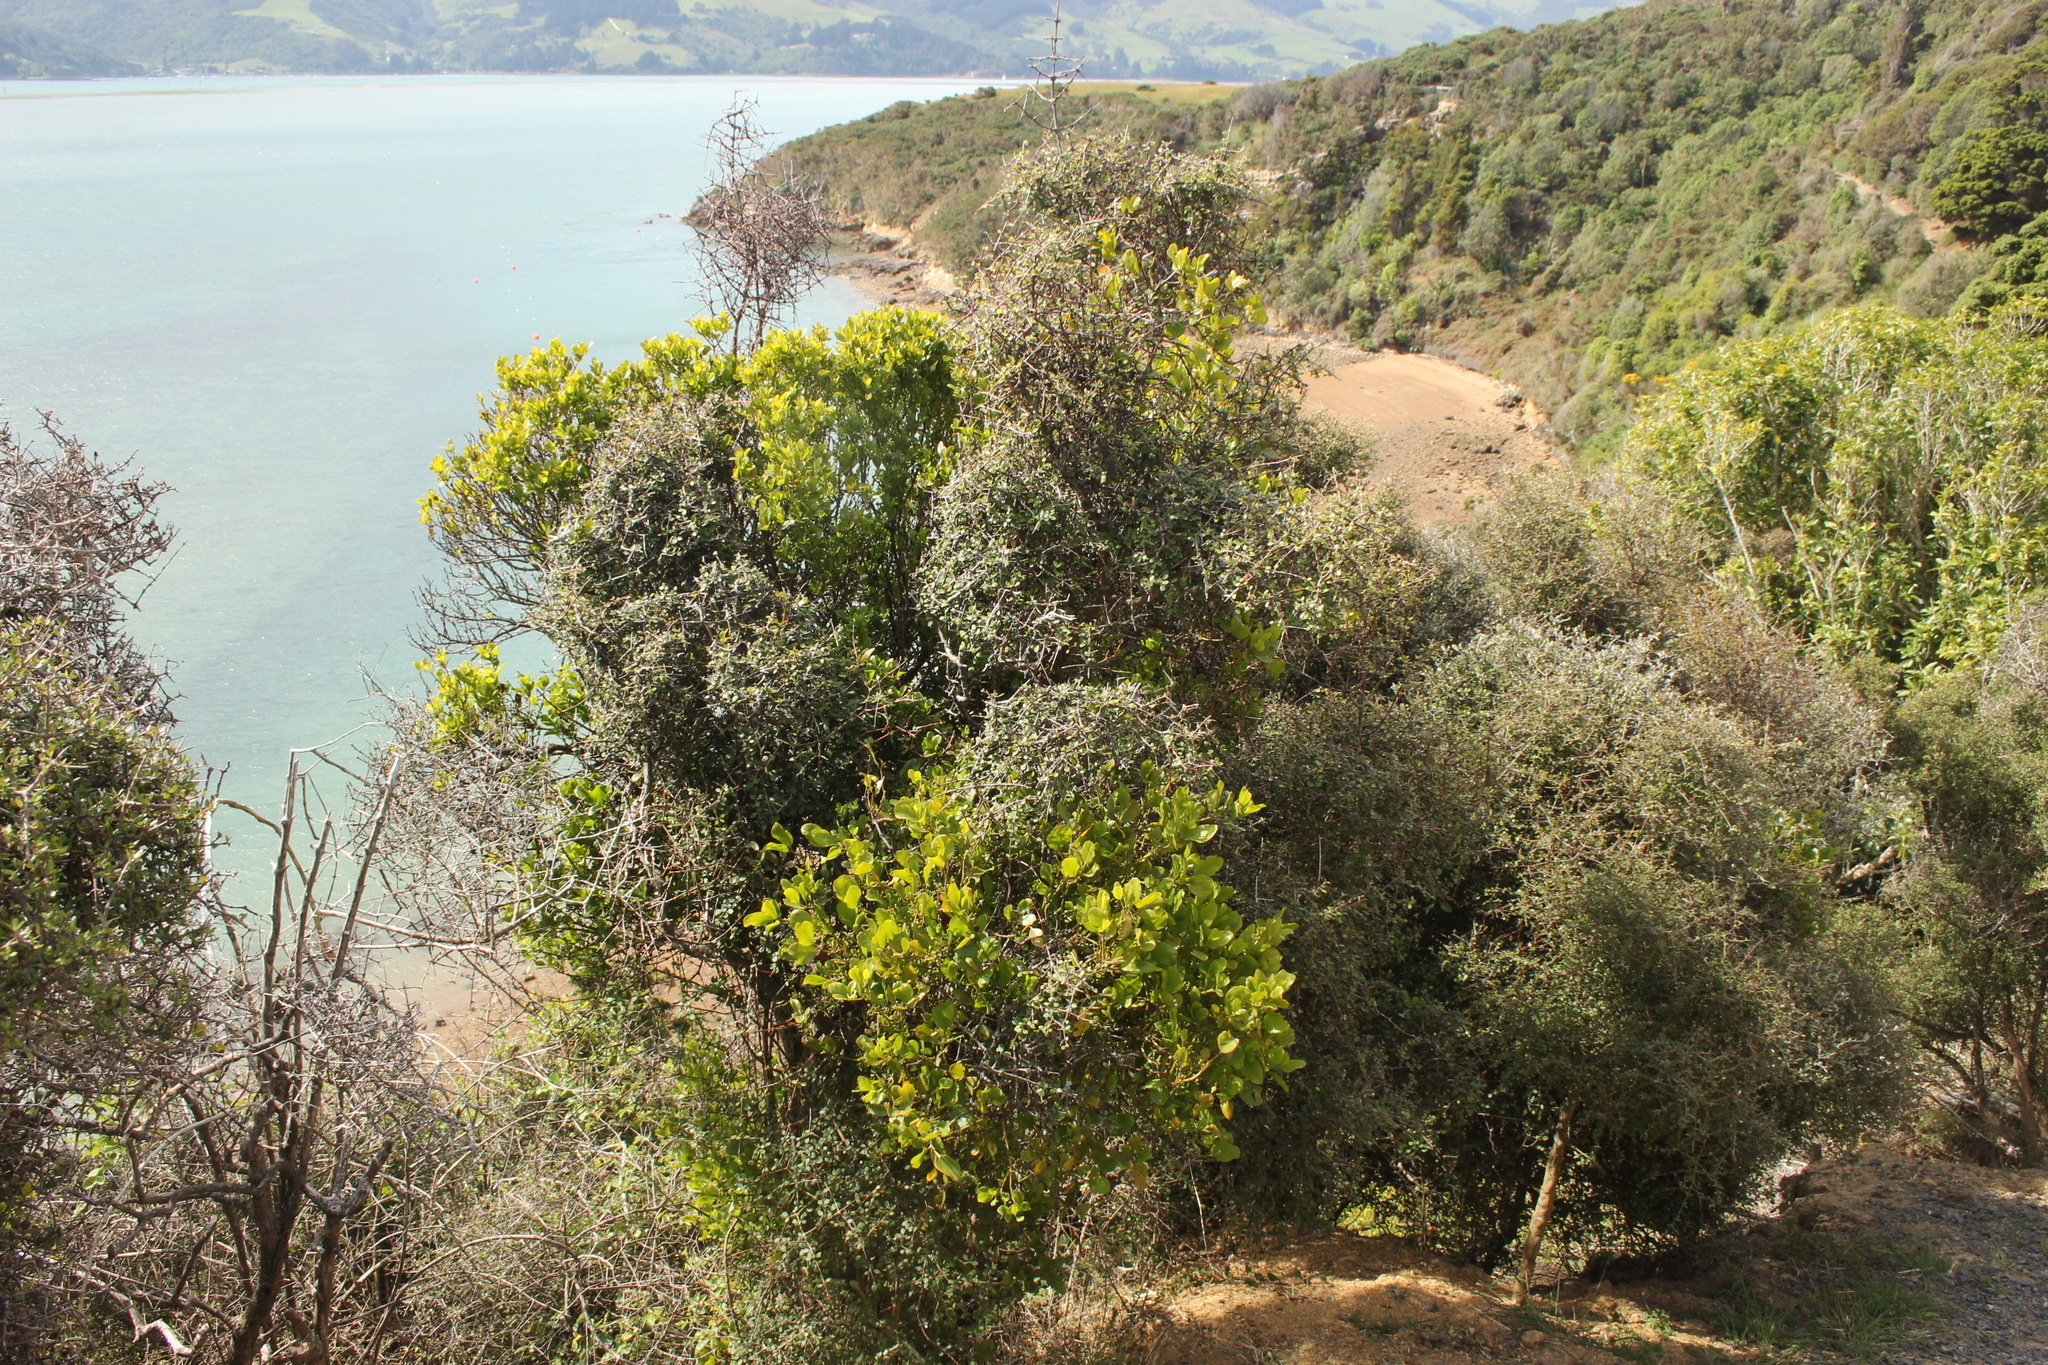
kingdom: Plantae
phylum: Tracheophyta
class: Magnoliopsida
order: Santalales
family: Loranthaceae
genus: Ileostylus
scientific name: Ileostylus micranthus
